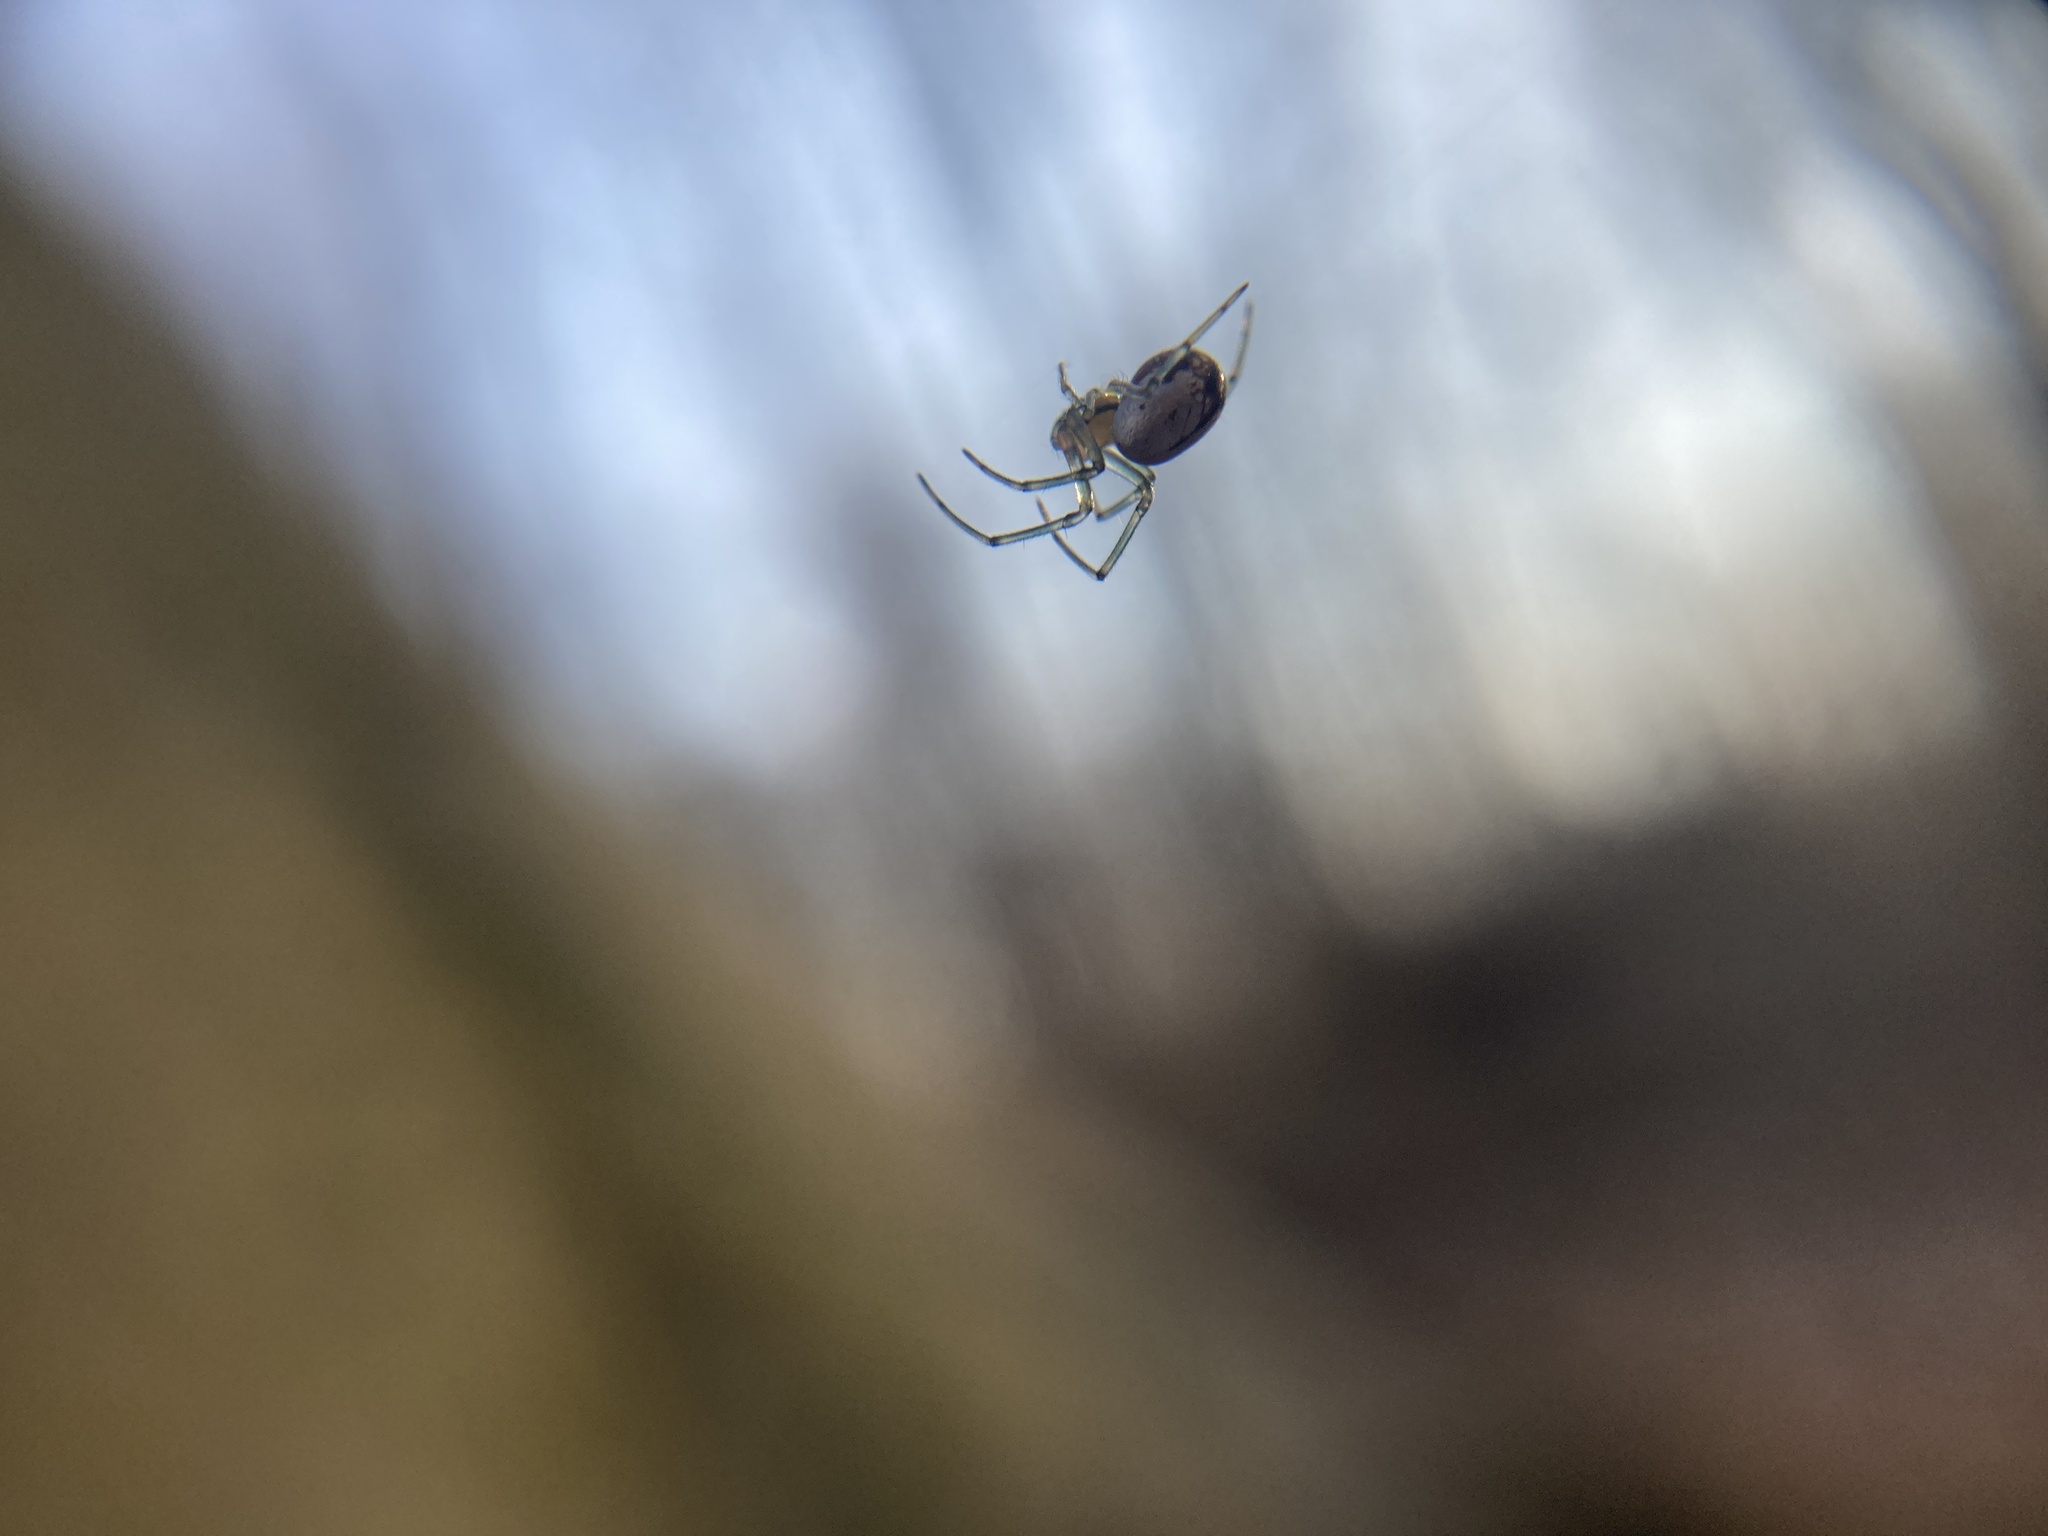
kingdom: Animalia
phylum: Arthropoda
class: Arachnida
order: Araneae
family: Tetragnathidae
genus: Leucauge
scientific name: Leucauge venusta
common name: Longjawed orb weavers
